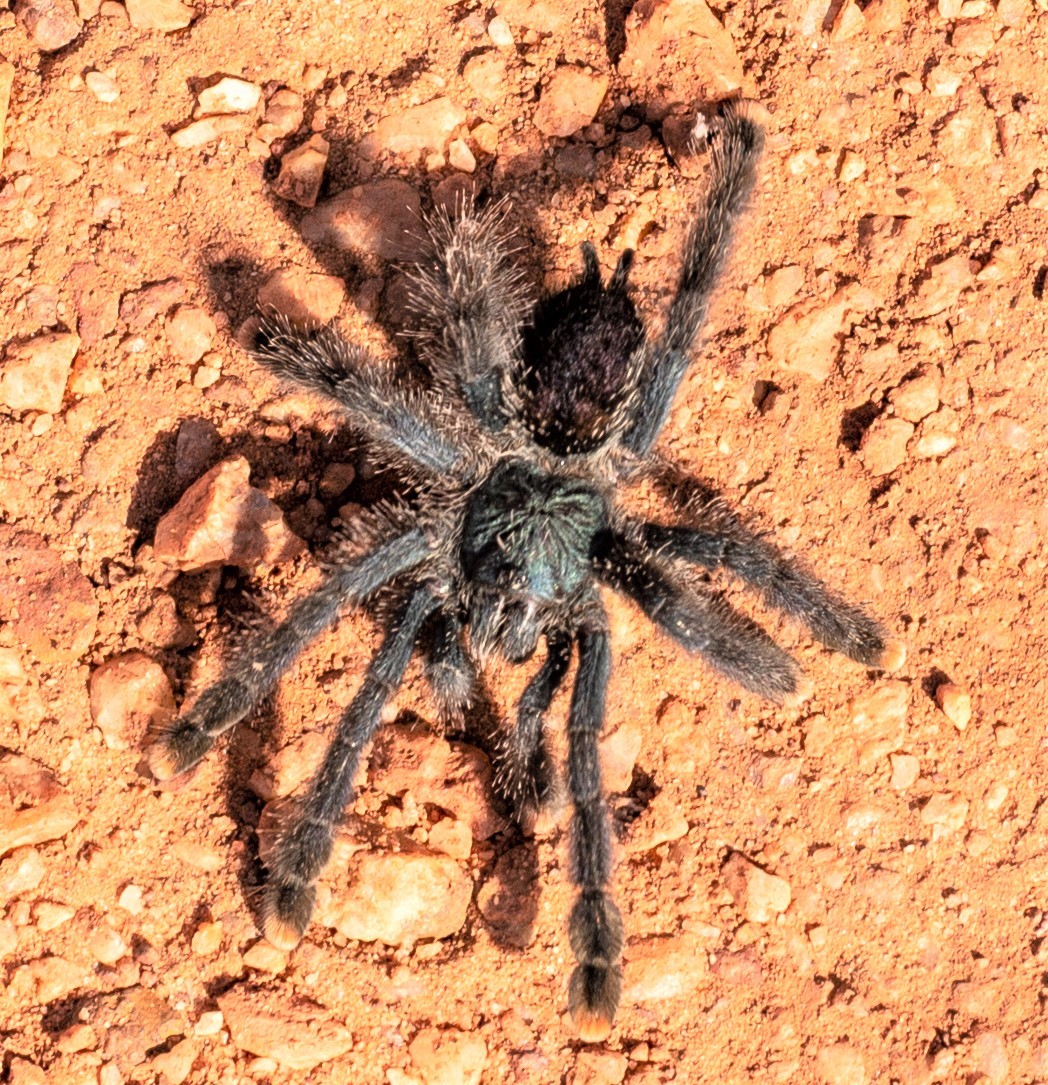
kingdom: Animalia
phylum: Arthropoda
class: Arachnida
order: Araneae
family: Theraphosidae
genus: Avicularia
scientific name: Avicularia avicularia
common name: Tarantula spiders
